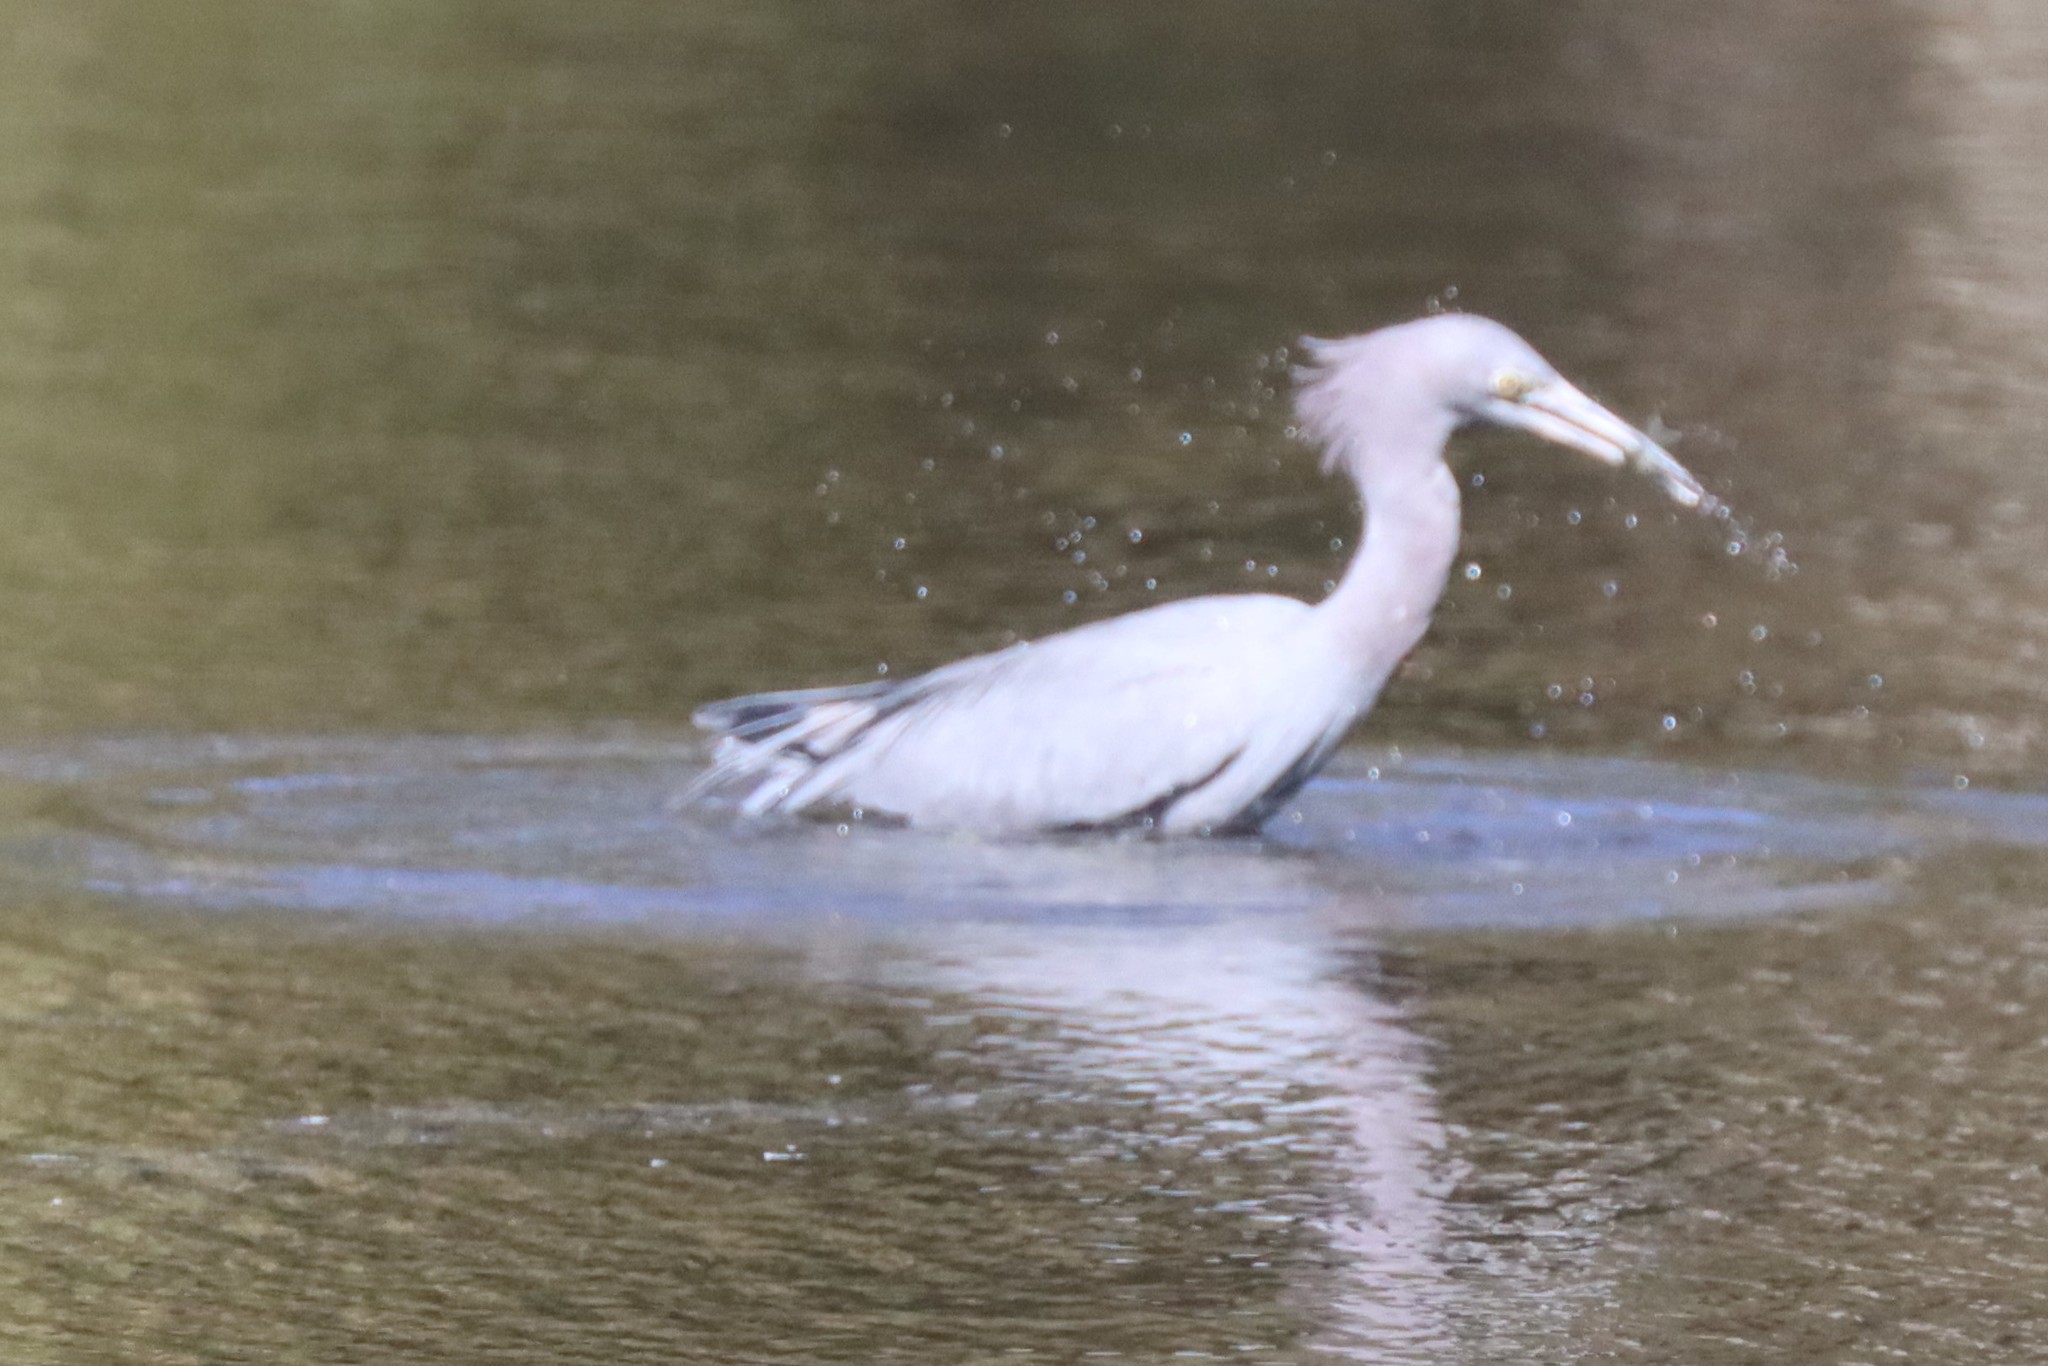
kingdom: Animalia
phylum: Chordata
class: Aves
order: Pelecaniformes
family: Ardeidae
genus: Egretta
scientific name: Egretta caerulea
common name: Little blue heron
